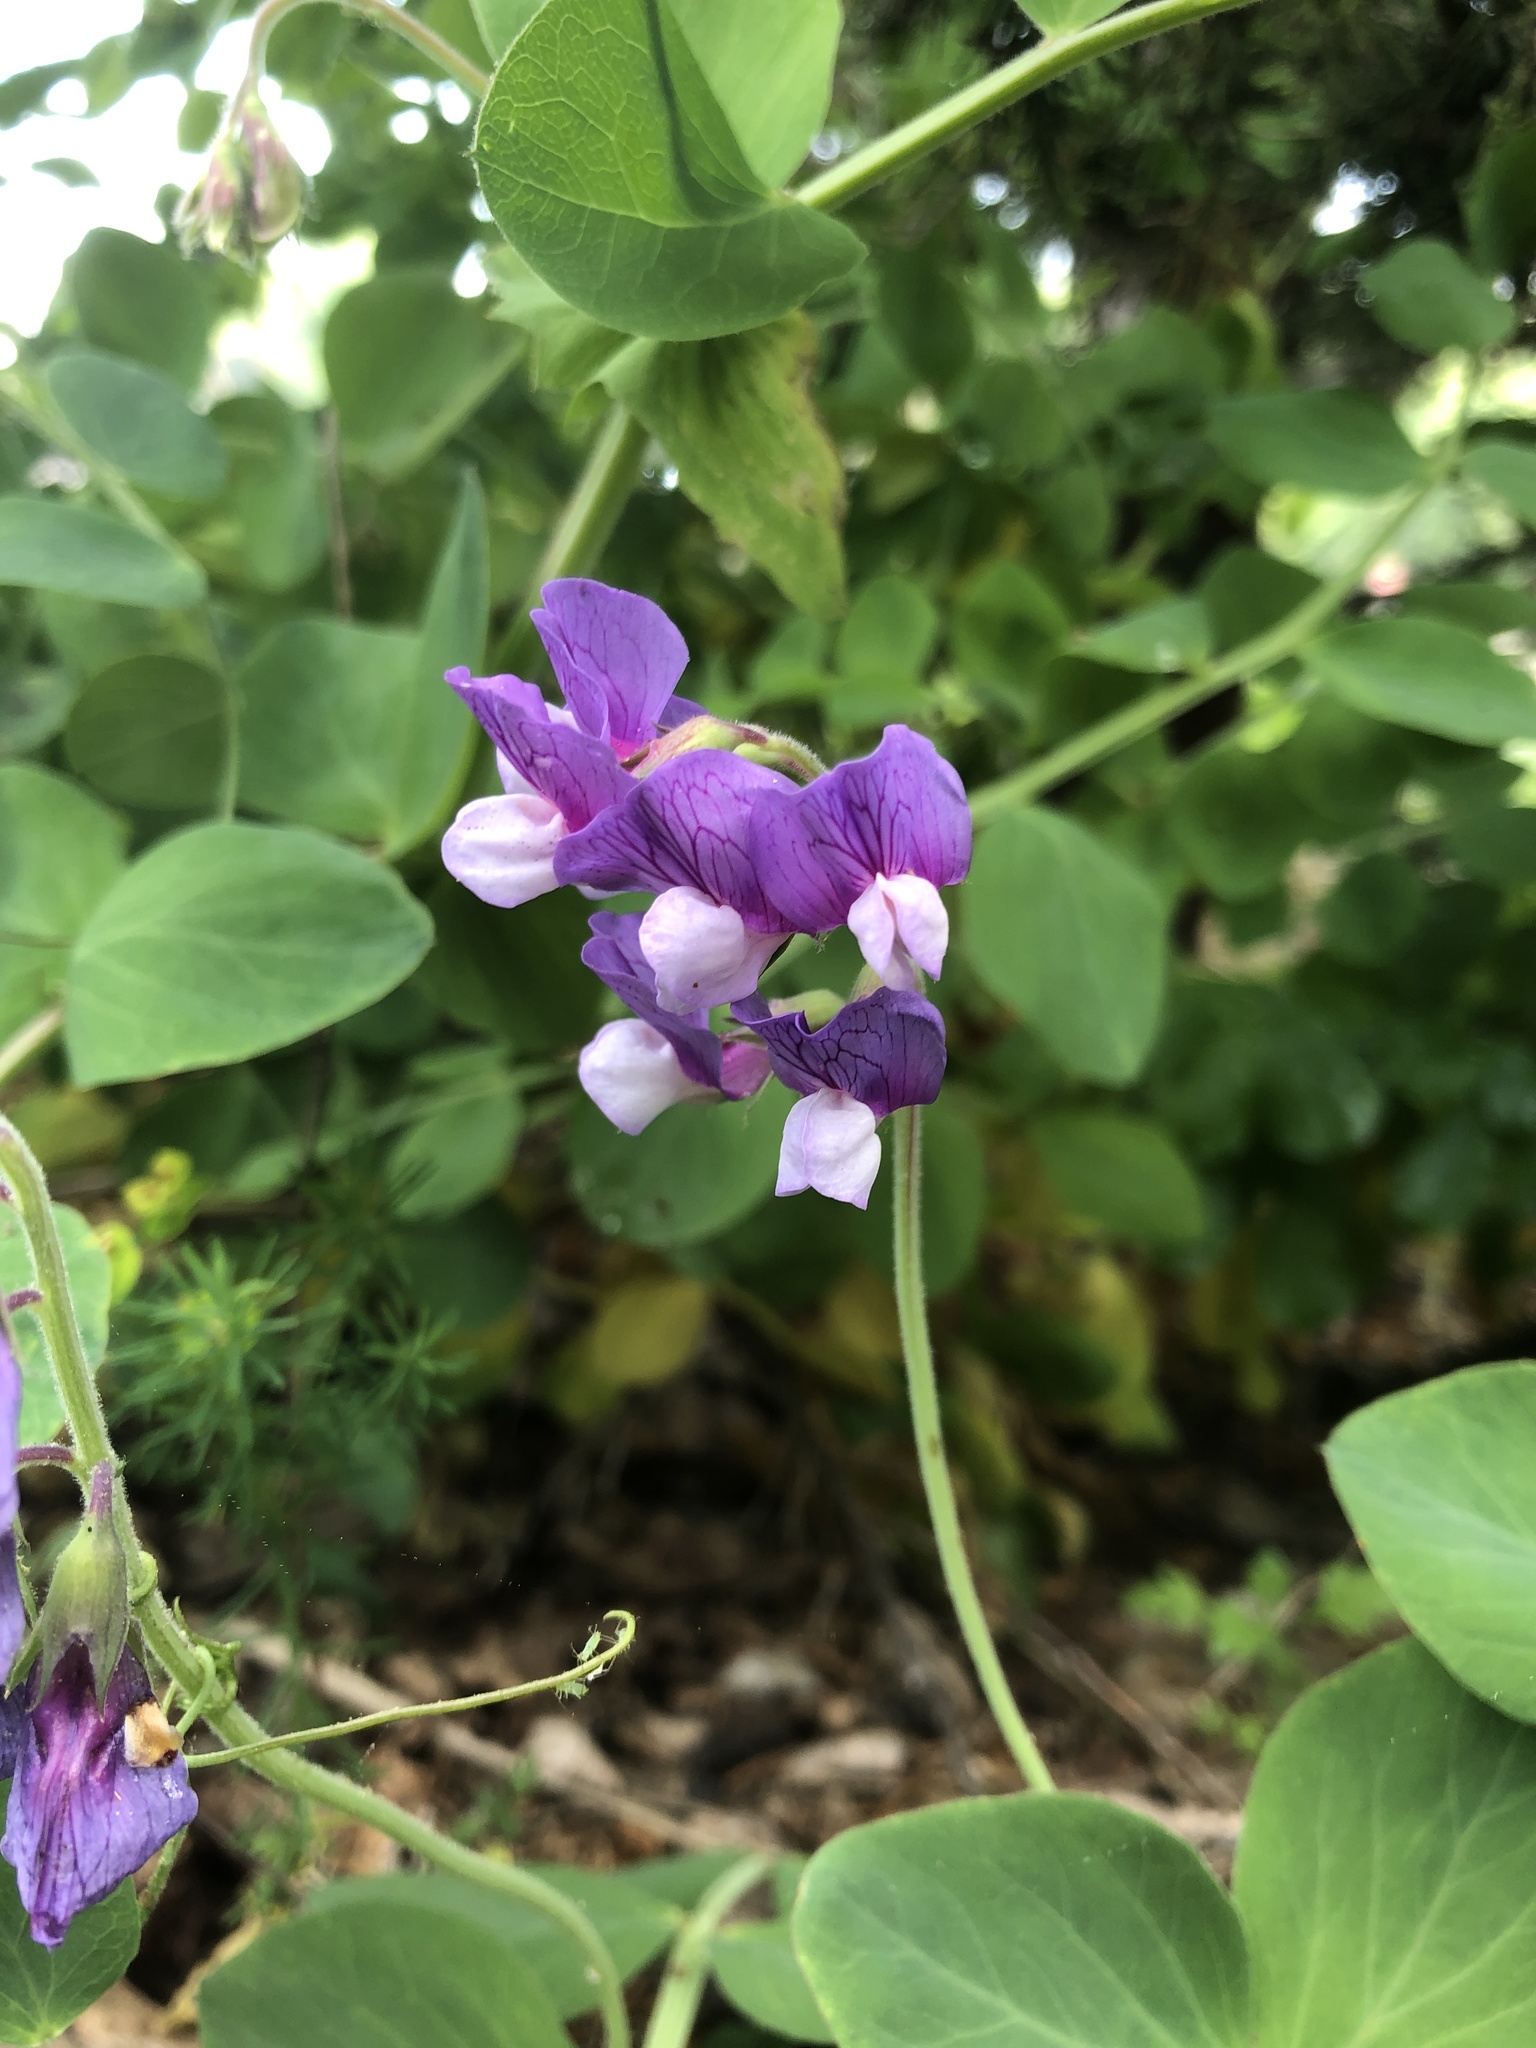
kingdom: Plantae
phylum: Tracheophyta
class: Magnoliopsida
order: Fabales
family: Fabaceae
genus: Lathyrus
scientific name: Lathyrus japonicus
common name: Sea pea
